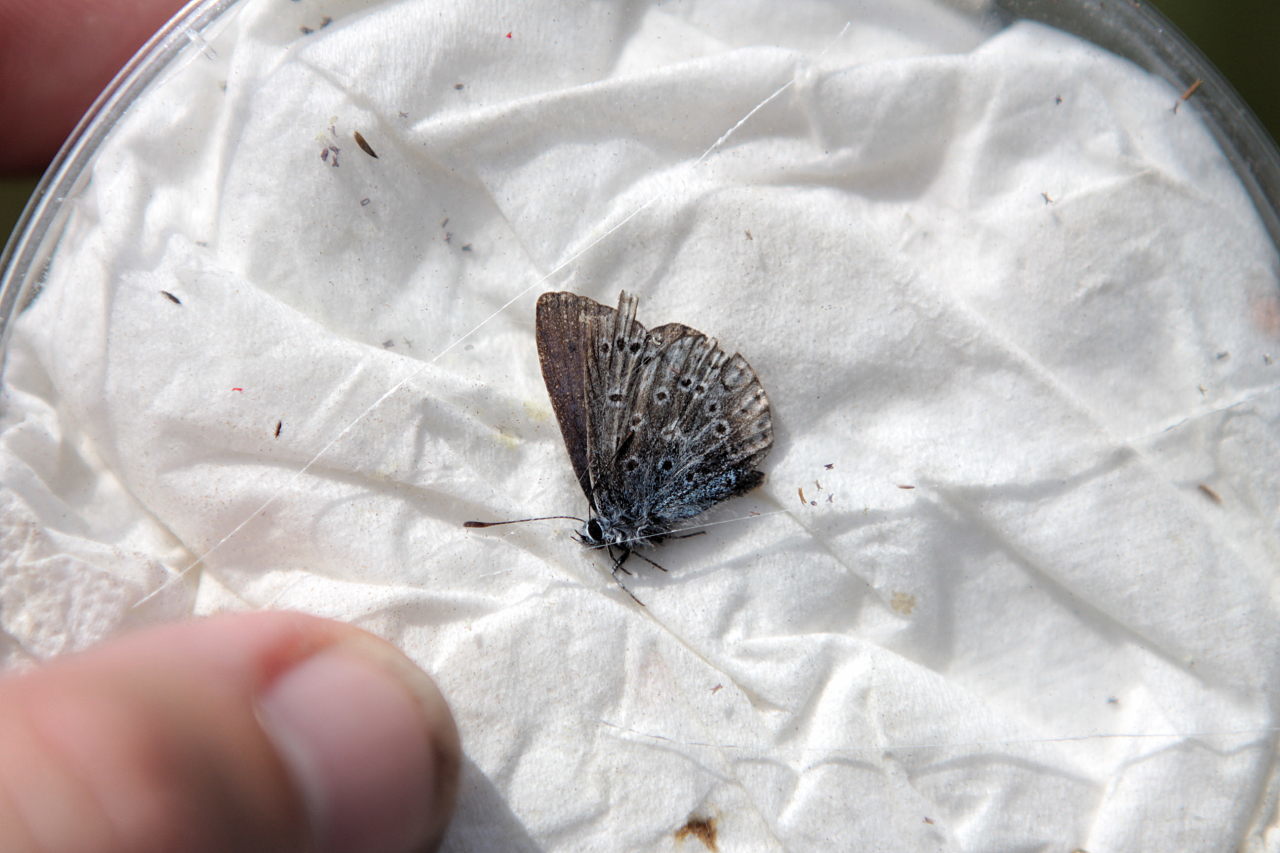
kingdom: Animalia
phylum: Arthropoda
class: Insecta
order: Lepidoptera
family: Lycaenidae
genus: Polyommatus
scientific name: Polyommatus icarus
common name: Common blue
